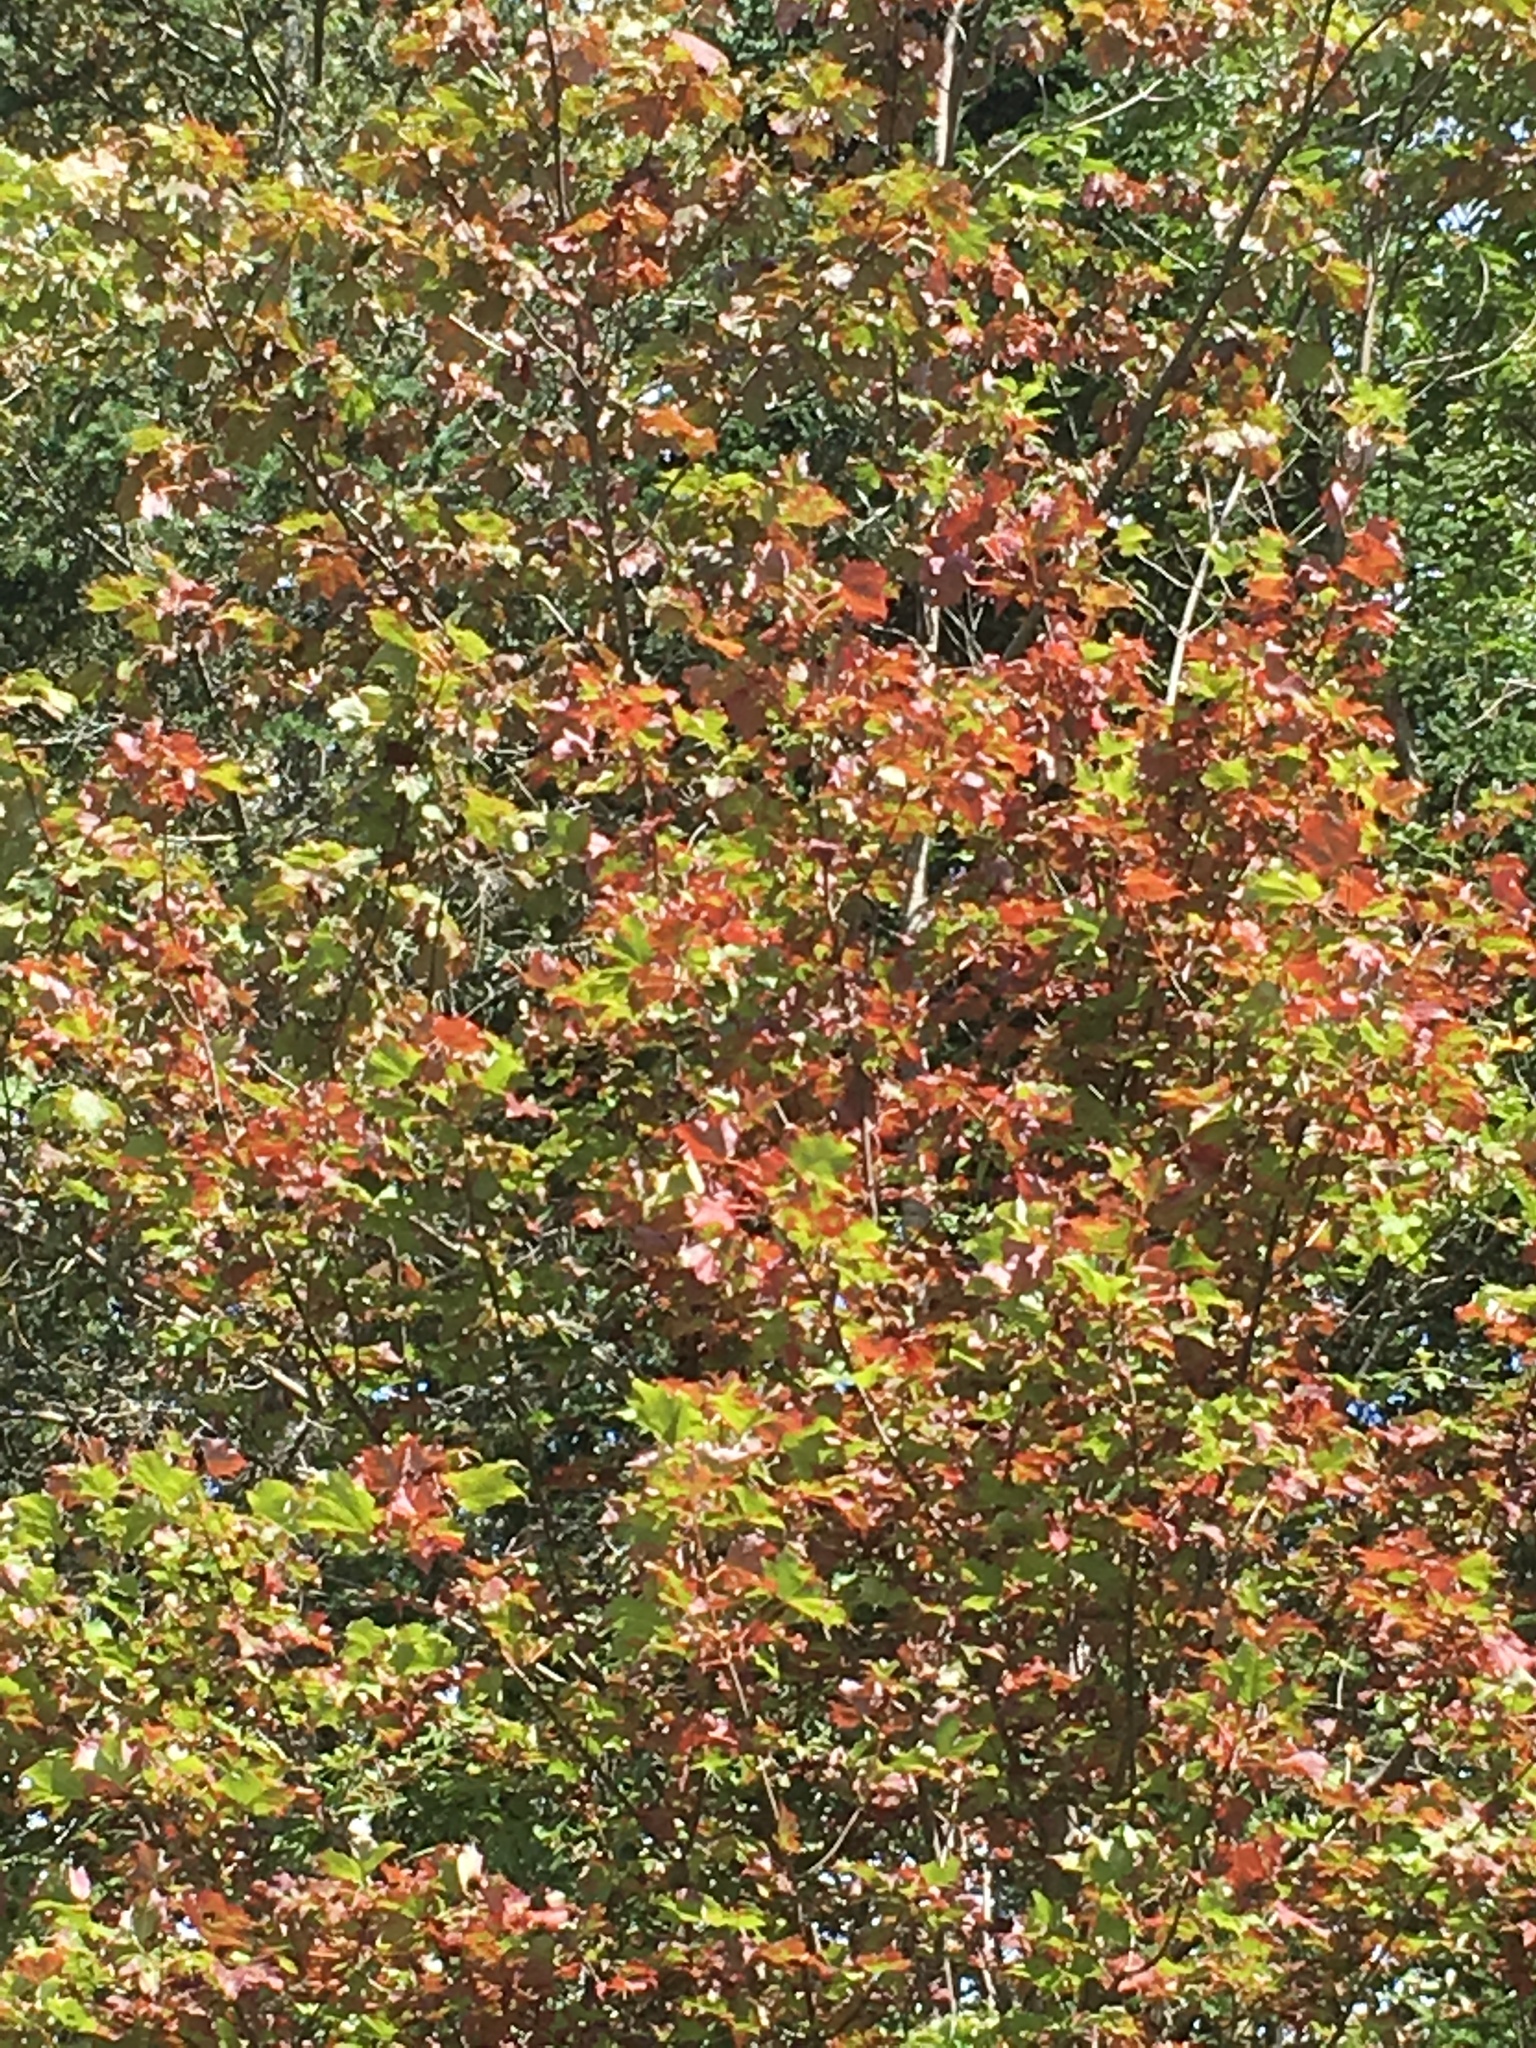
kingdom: Plantae
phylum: Tracheophyta
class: Magnoliopsida
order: Sapindales
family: Sapindaceae
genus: Acer
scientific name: Acer saccharum
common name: Sugar maple
